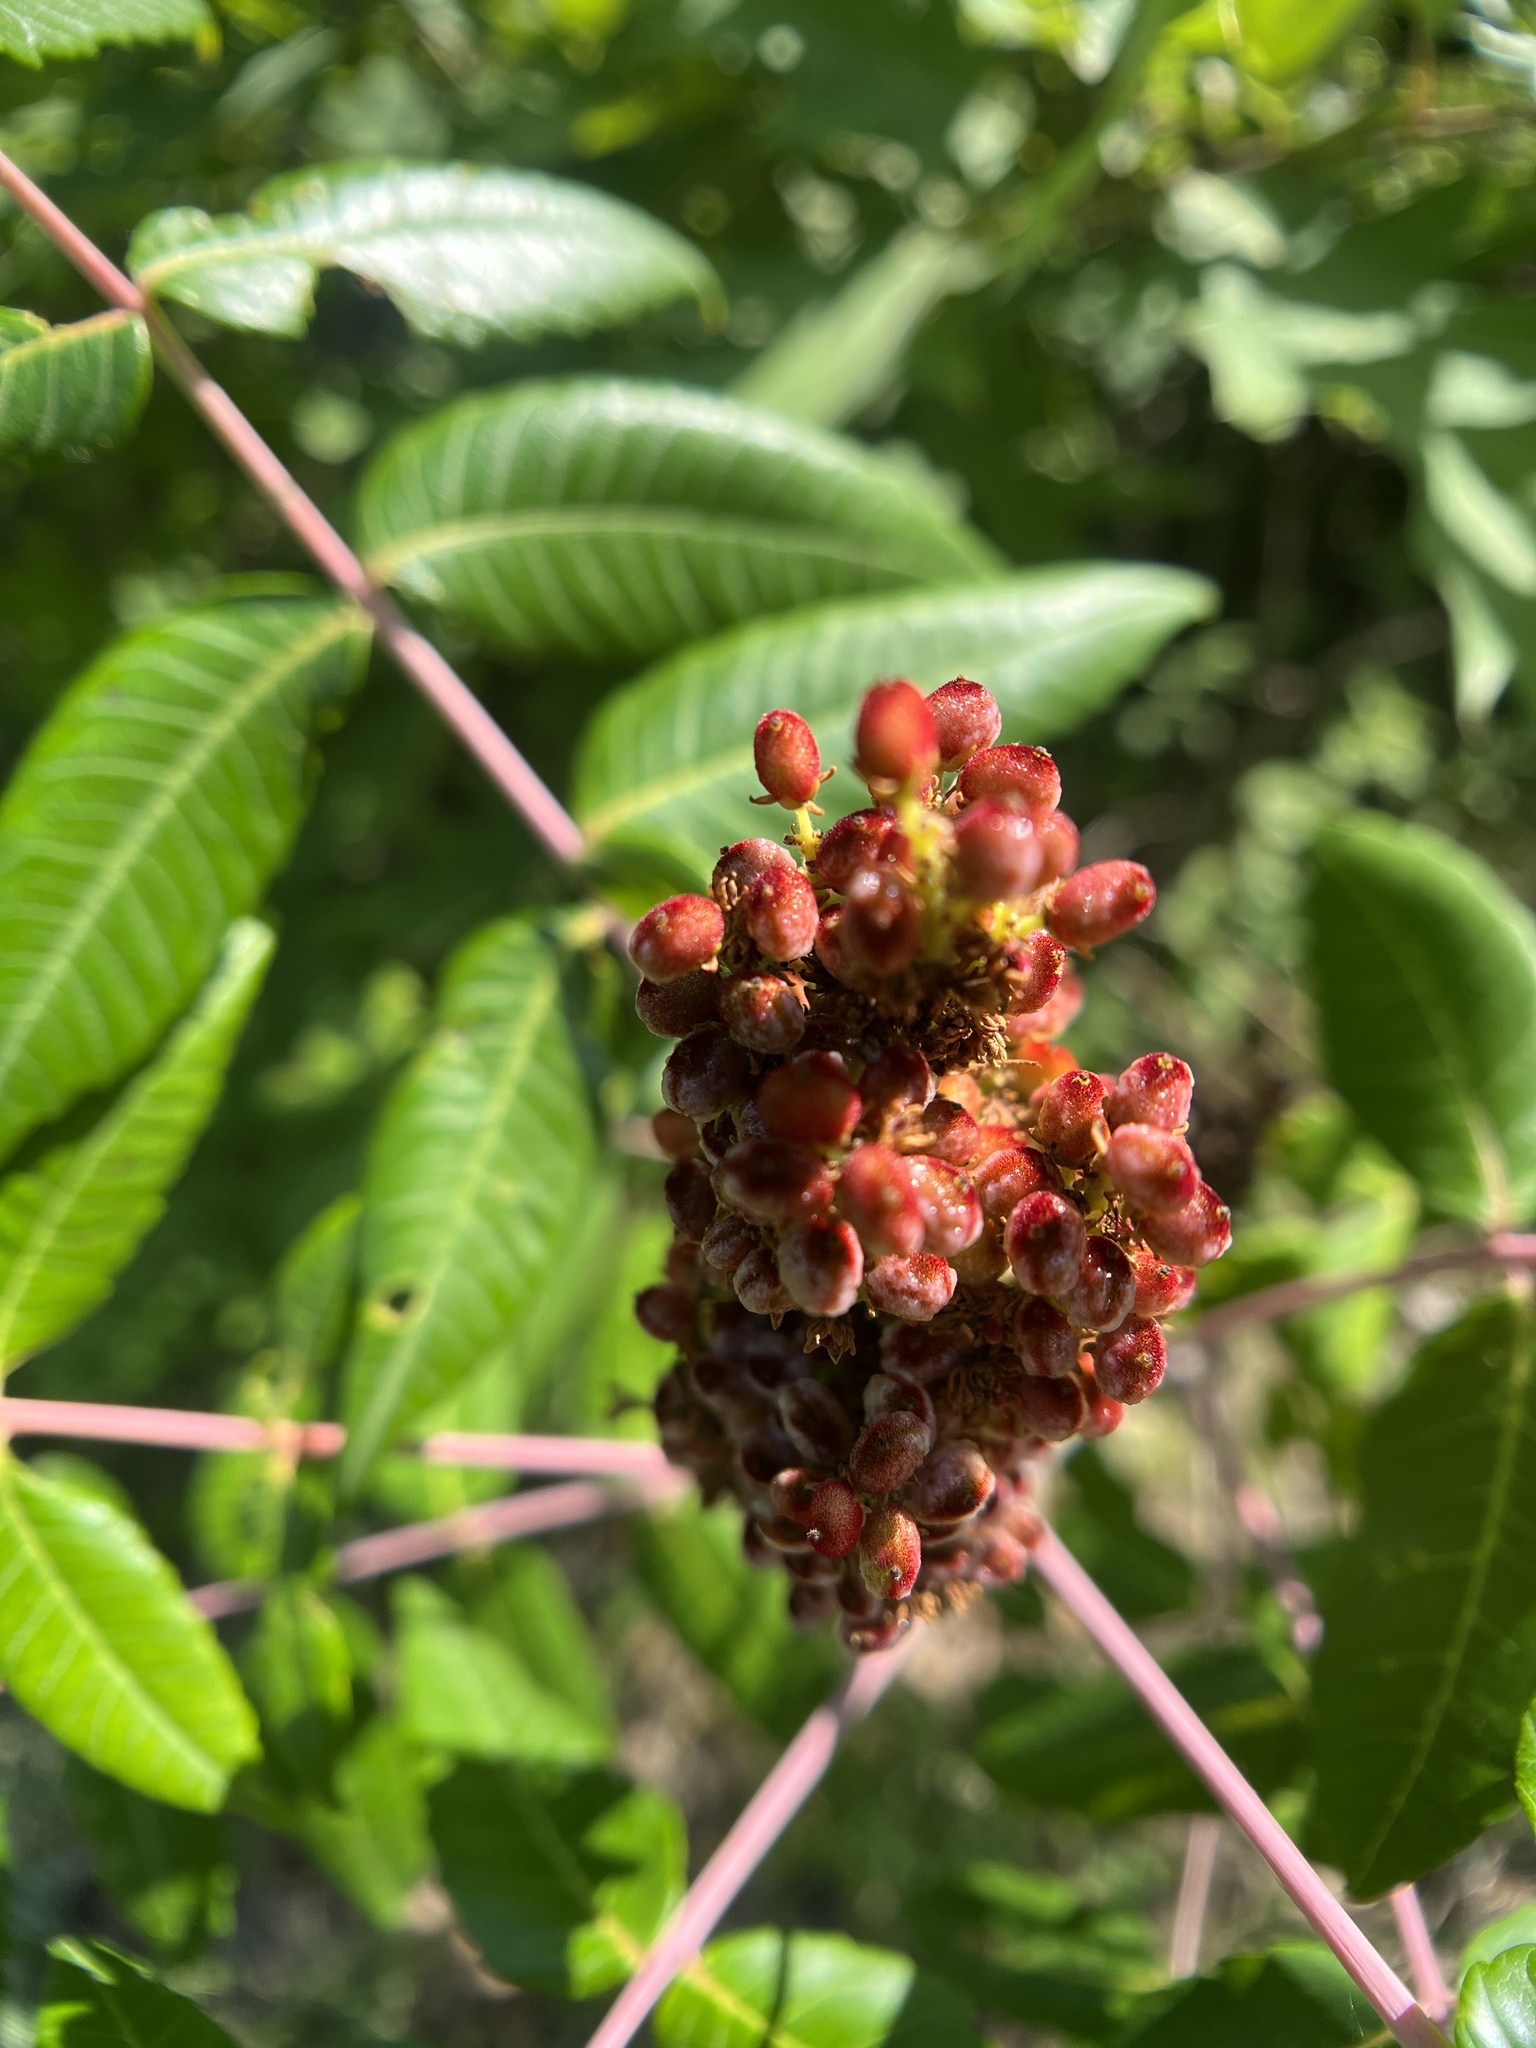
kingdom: Plantae
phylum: Tracheophyta
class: Magnoliopsida
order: Sapindales
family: Anacardiaceae
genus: Rhus
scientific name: Rhus glabra
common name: Scarlet sumac
